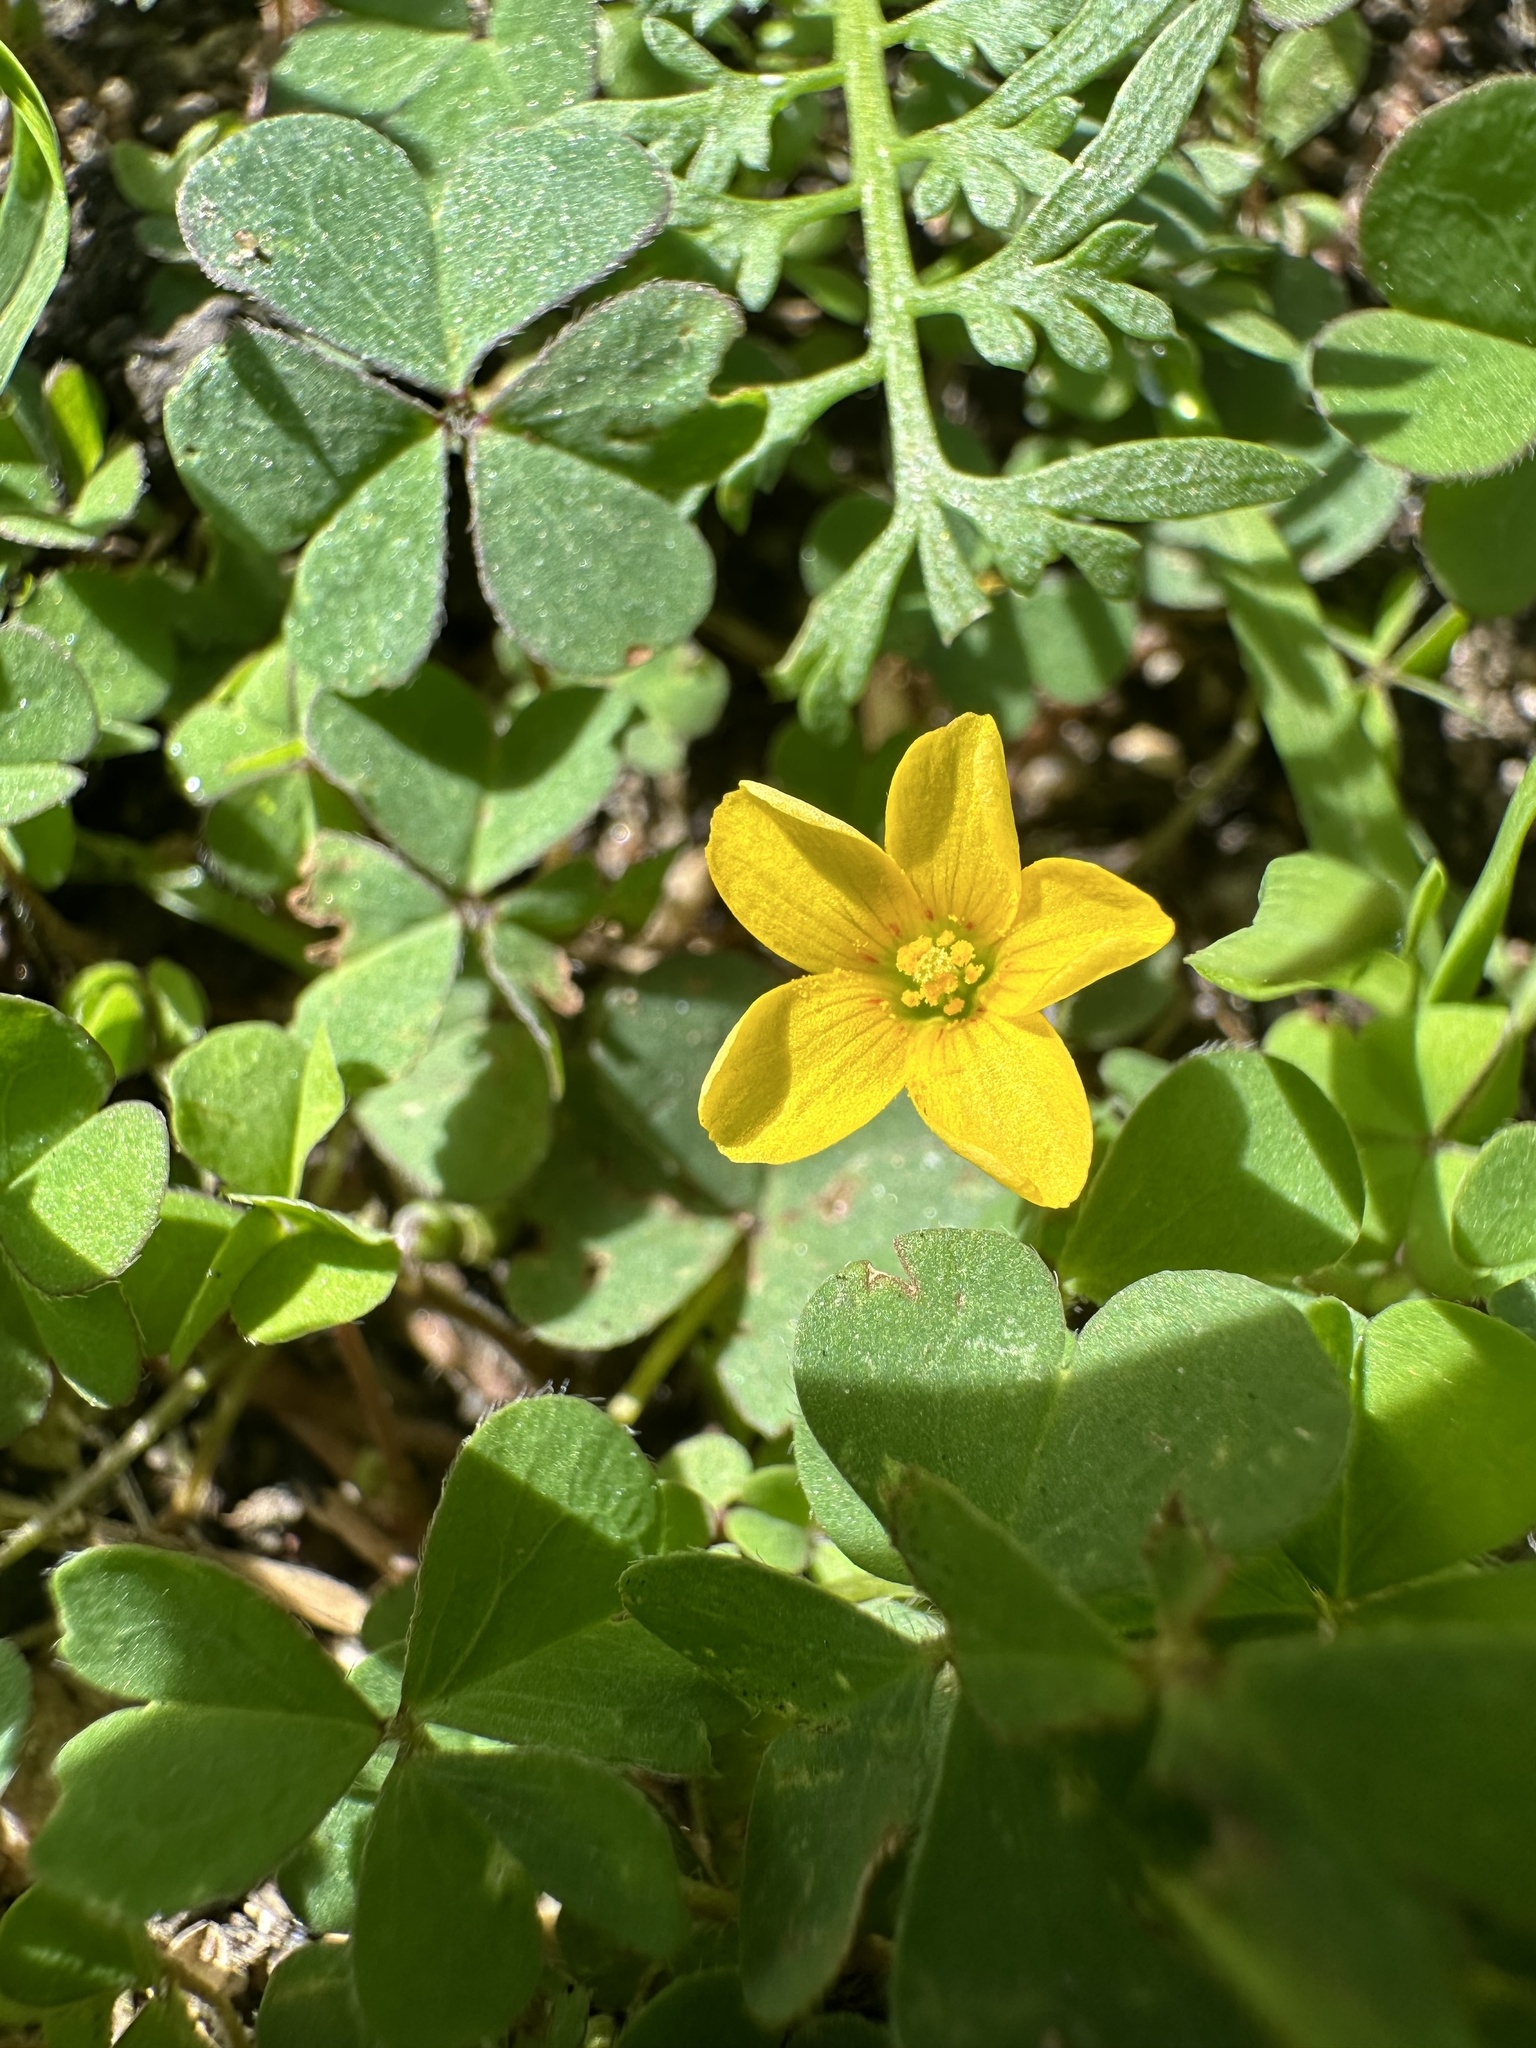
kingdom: Plantae
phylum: Tracheophyta
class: Magnoliopsida
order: Oxalidales
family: Oxalidaceae
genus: Oxalis
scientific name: Oxalis corniculata
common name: Procumbent yellow-sorrel
